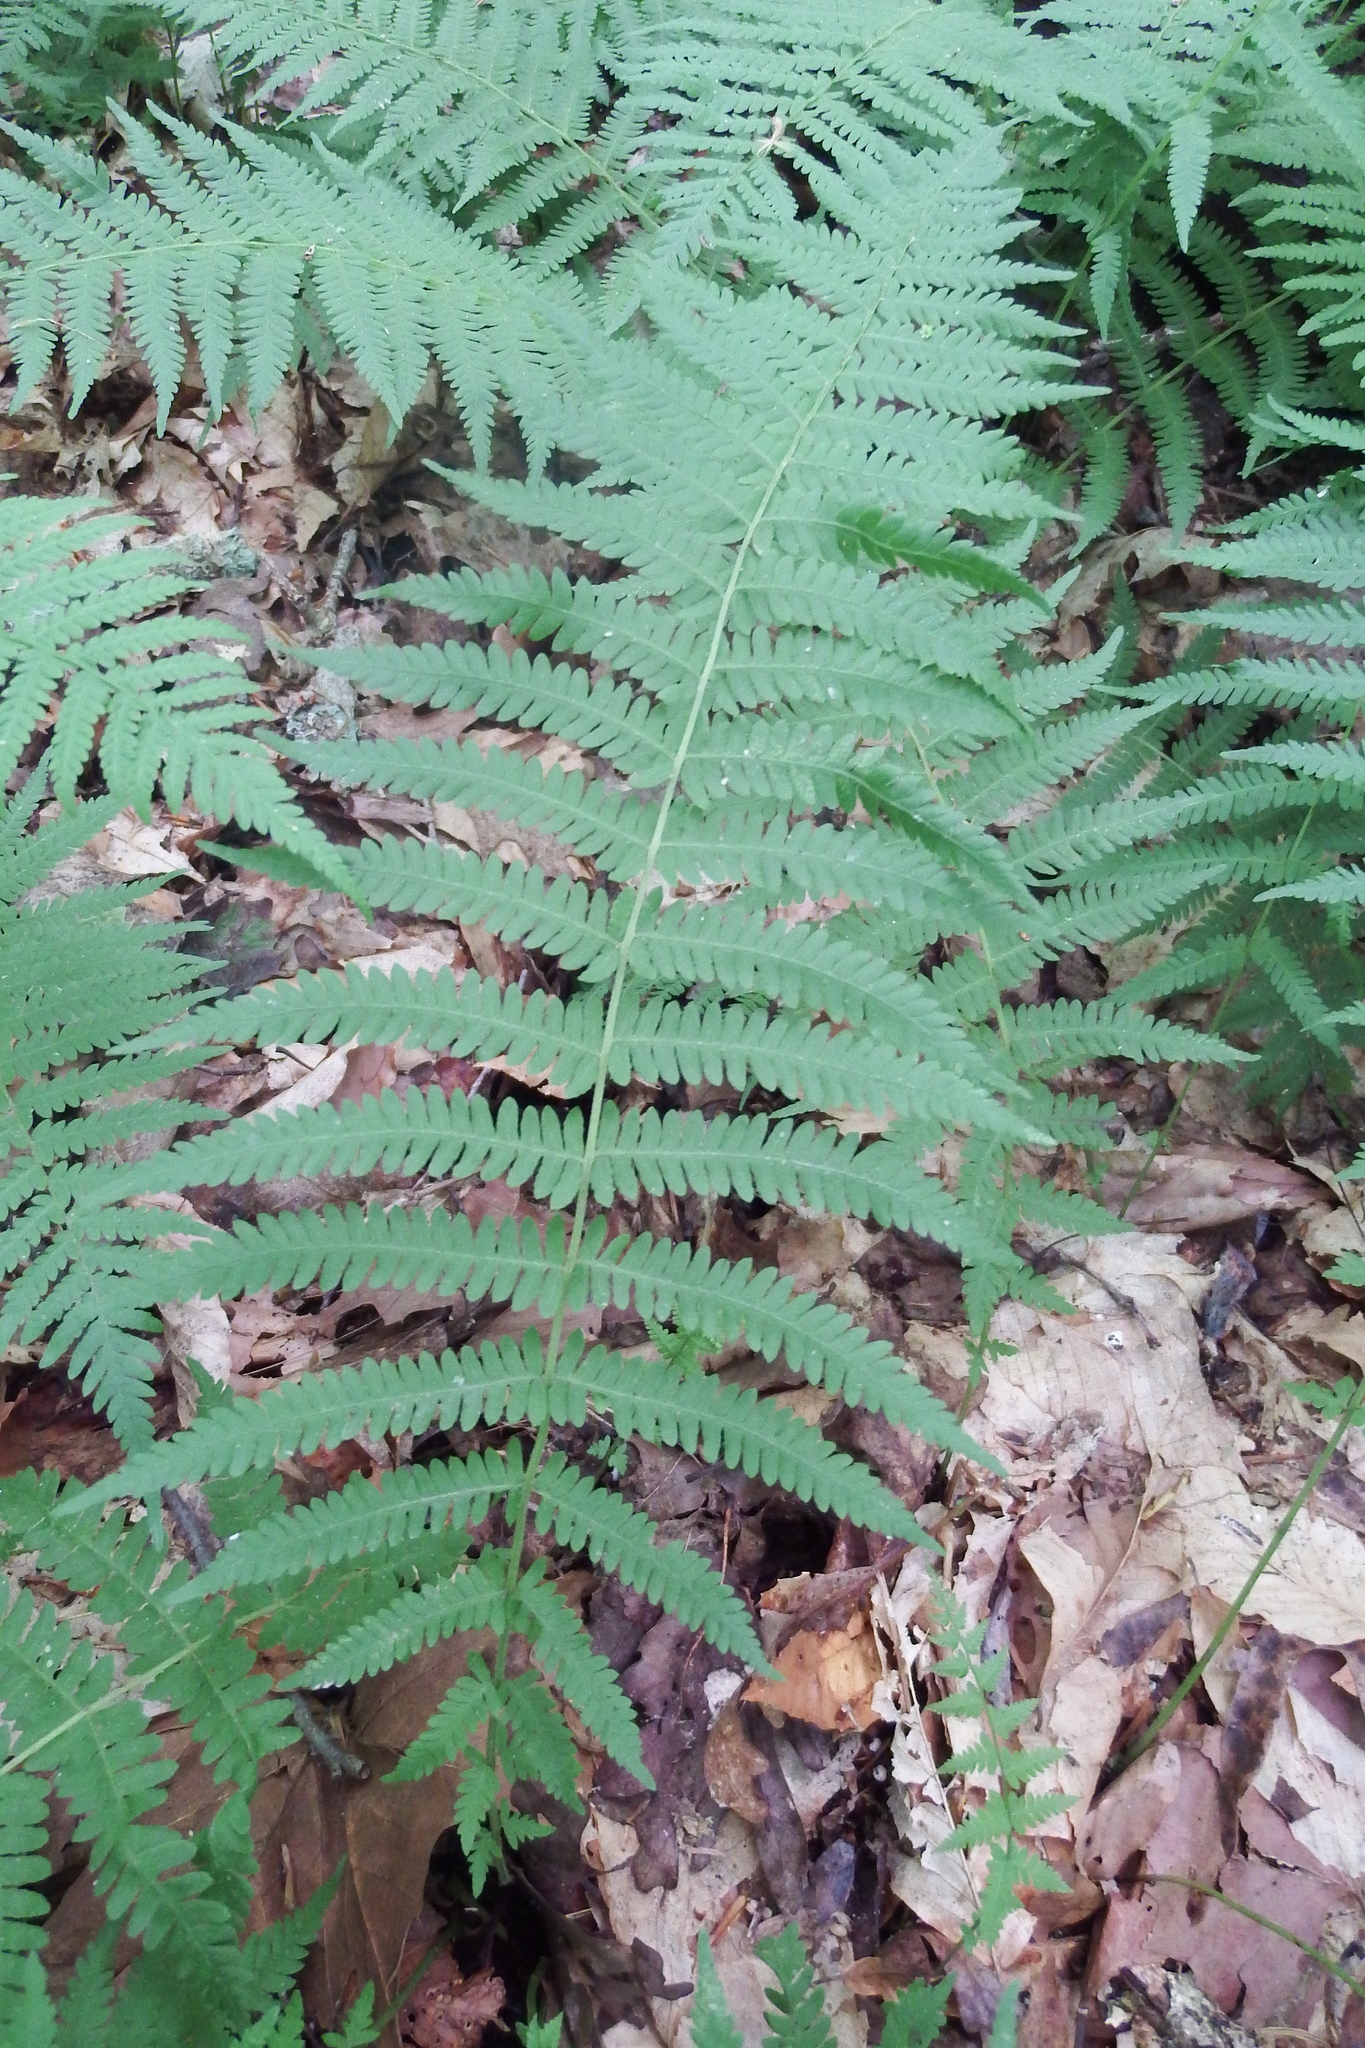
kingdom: Plantae
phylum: Tracheophyta
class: Polypodiopsida
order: Polypodiales
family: Thelypteridaceae
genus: Amauropelta
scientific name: Amauropelta noveboracensis
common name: New york fern
